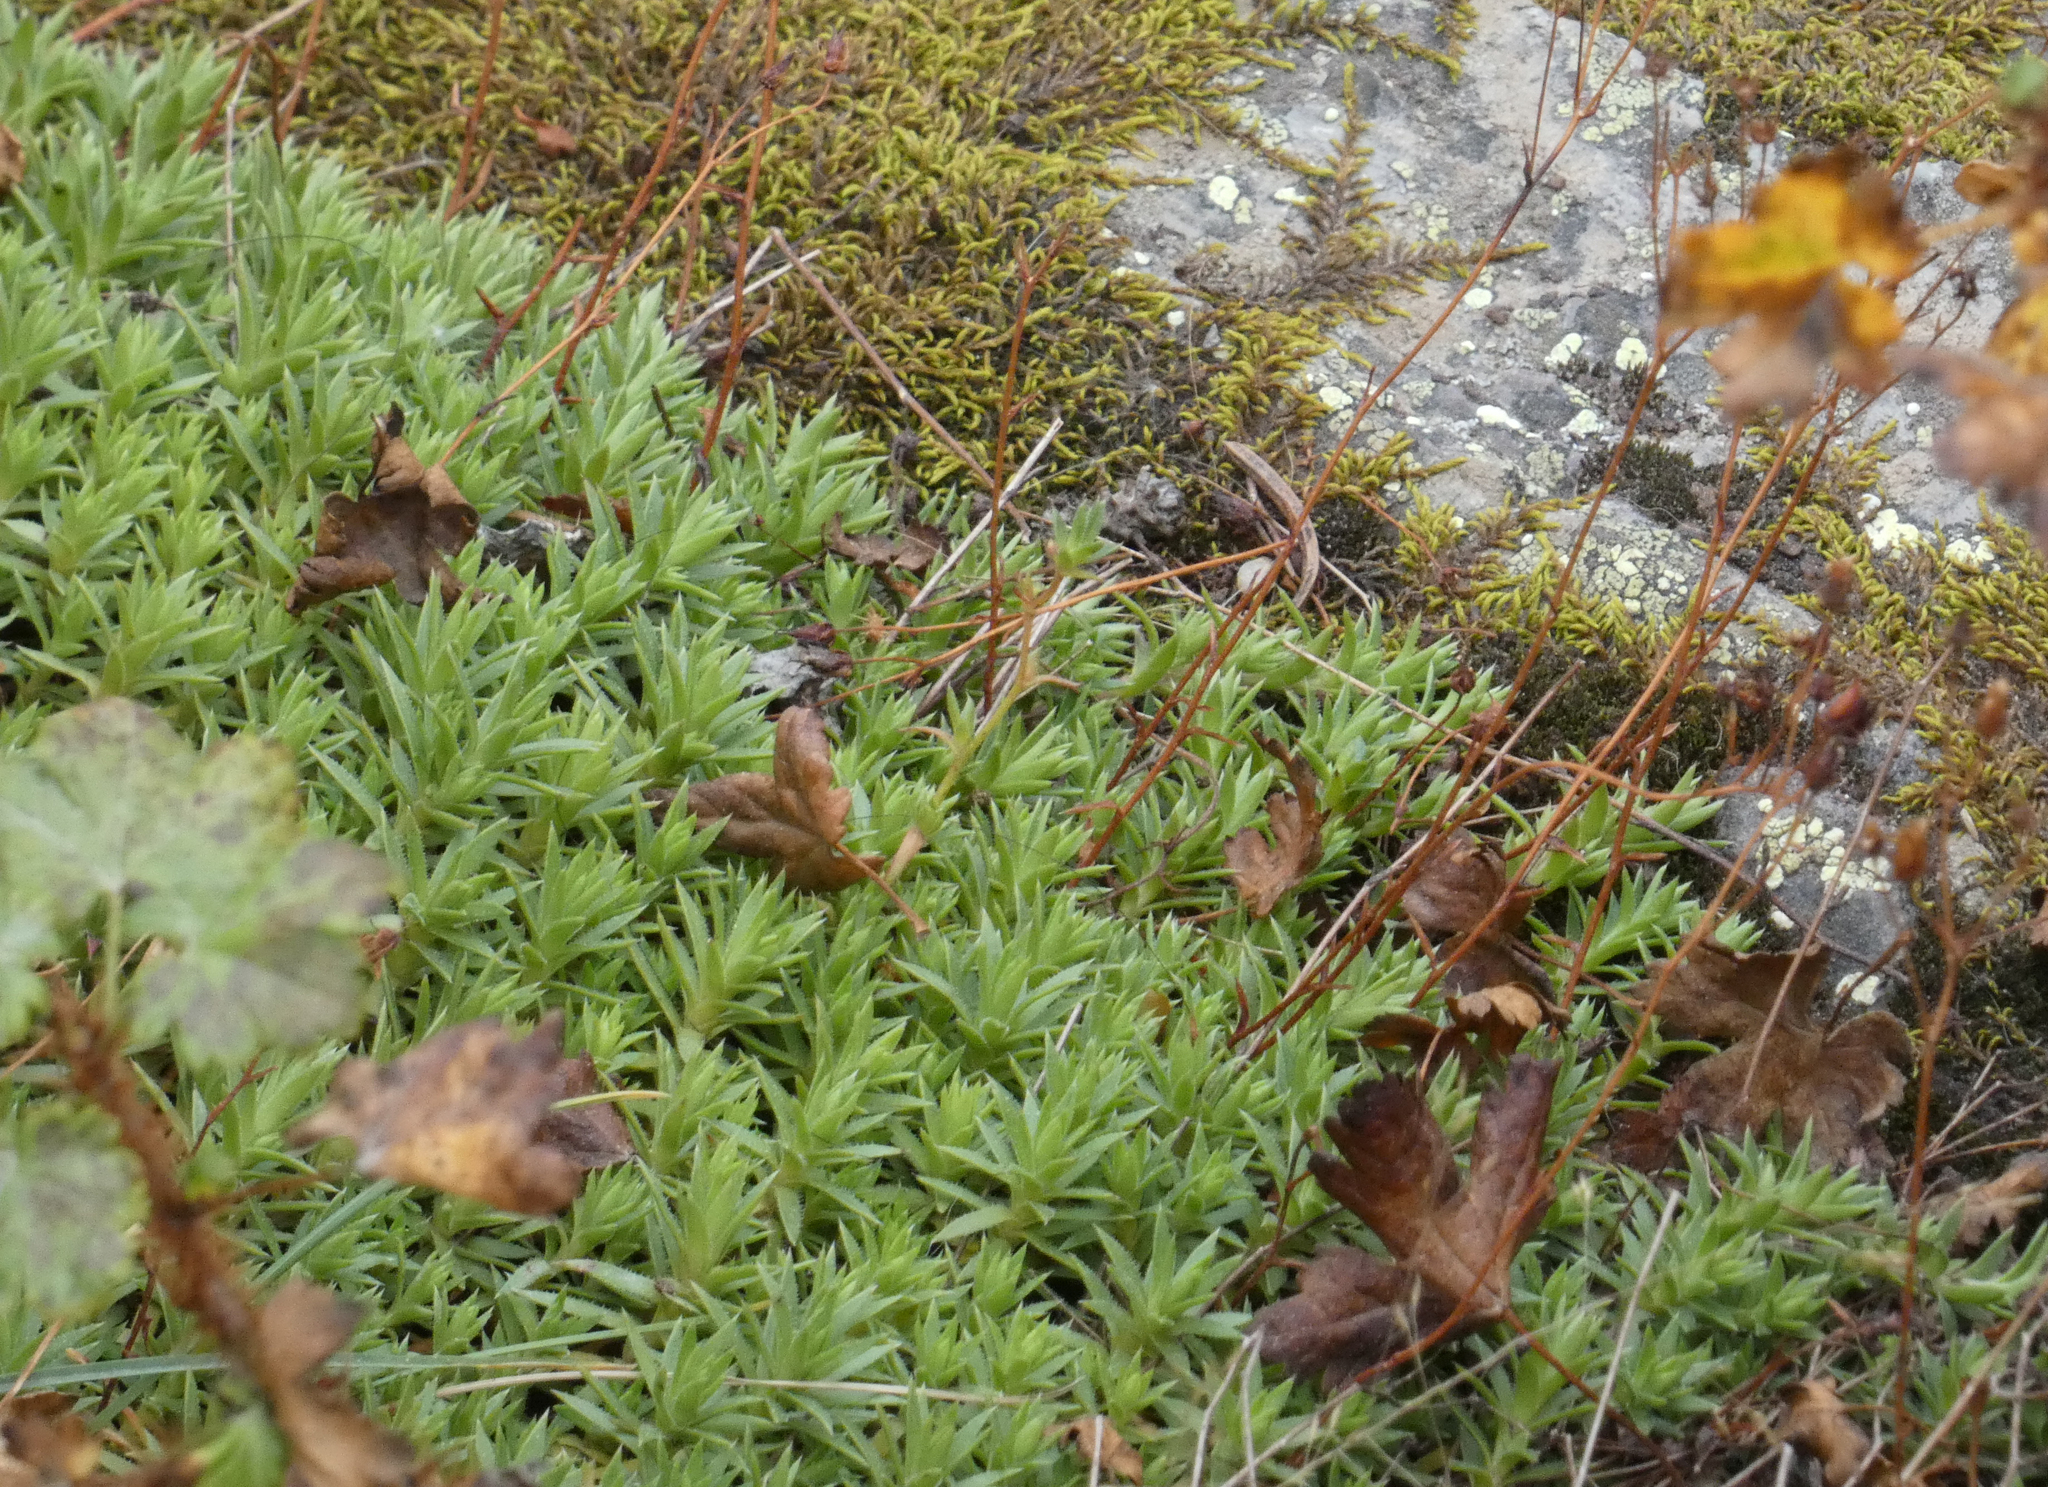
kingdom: Plantae
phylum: Tracheophyta
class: Magnoliopsida
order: Saxifragales
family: Saxifragaceae
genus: Saxifraga
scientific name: Saxifraga bronchialis
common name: Matted saxifrage
